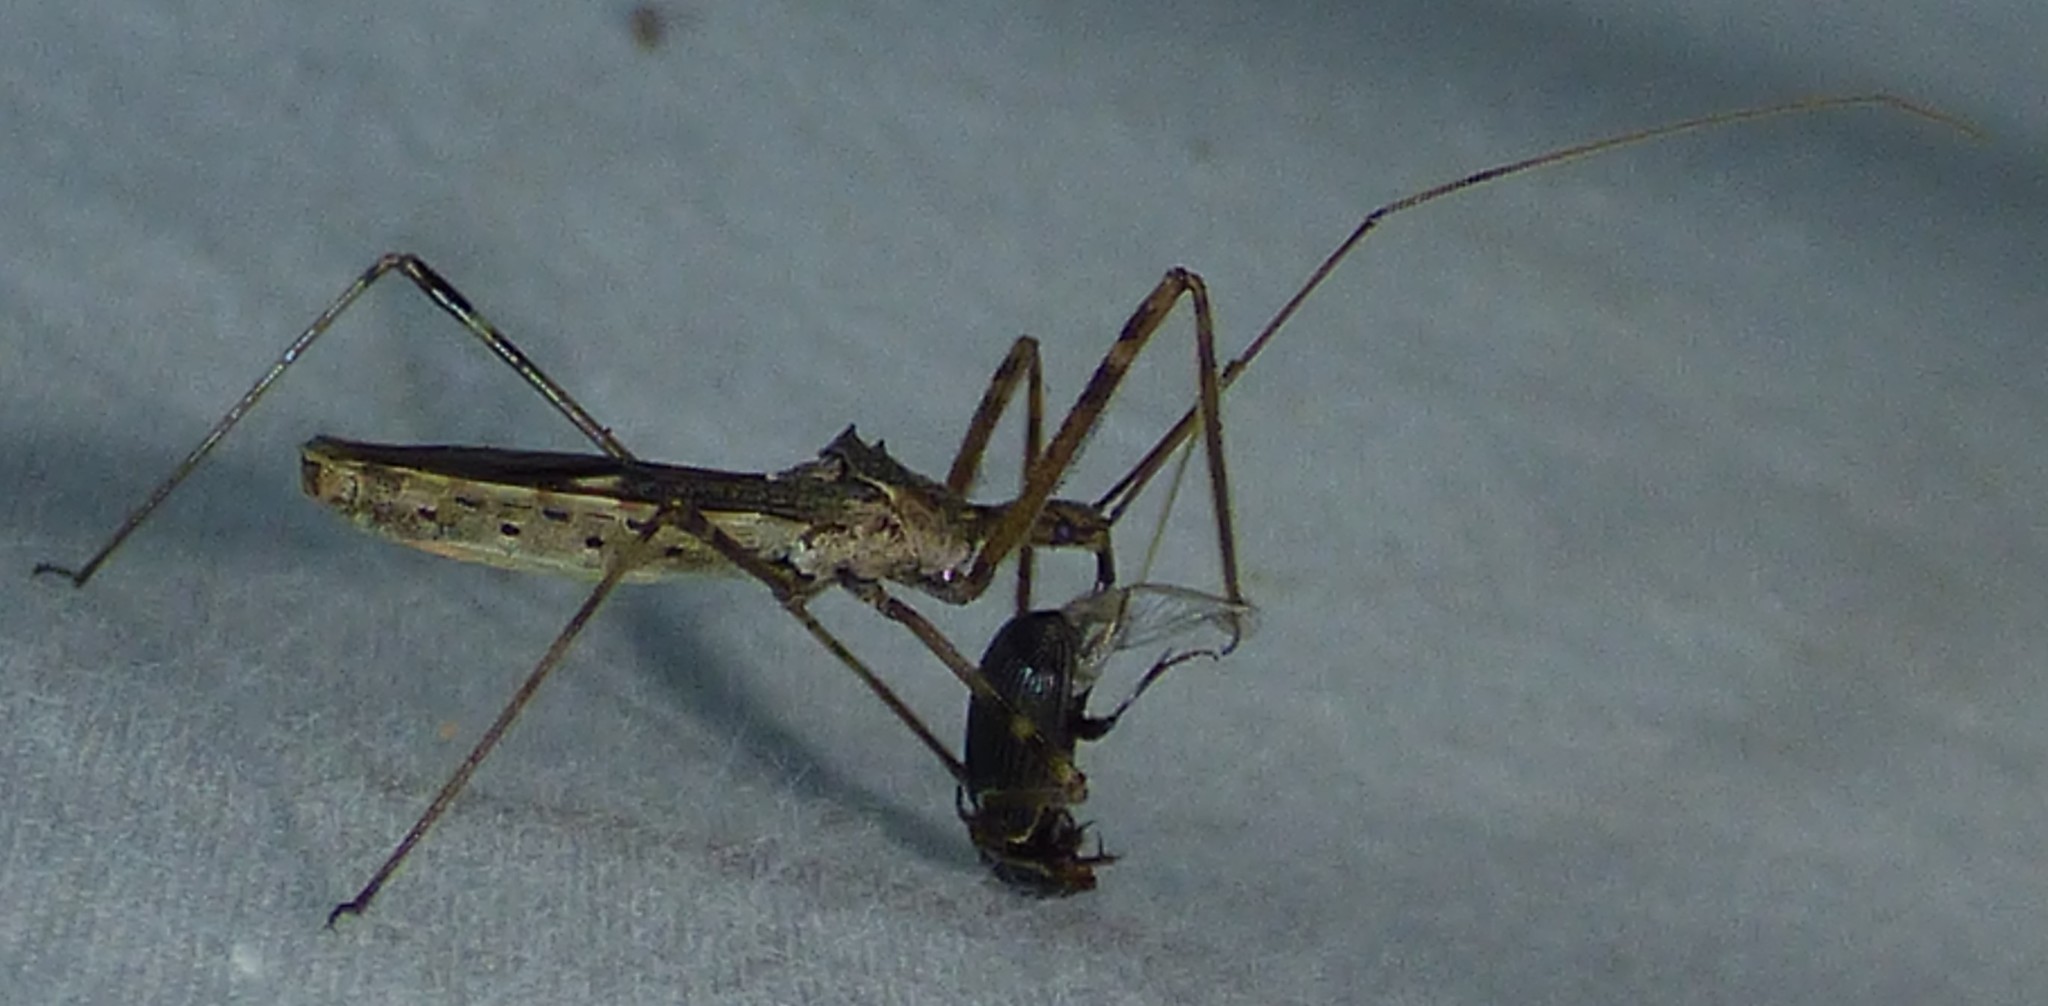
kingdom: Animalia
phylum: Arthropoda
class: Insecta
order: Hemiptera
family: Reduviidae
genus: Zelus
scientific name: Zelus tetracanthus
